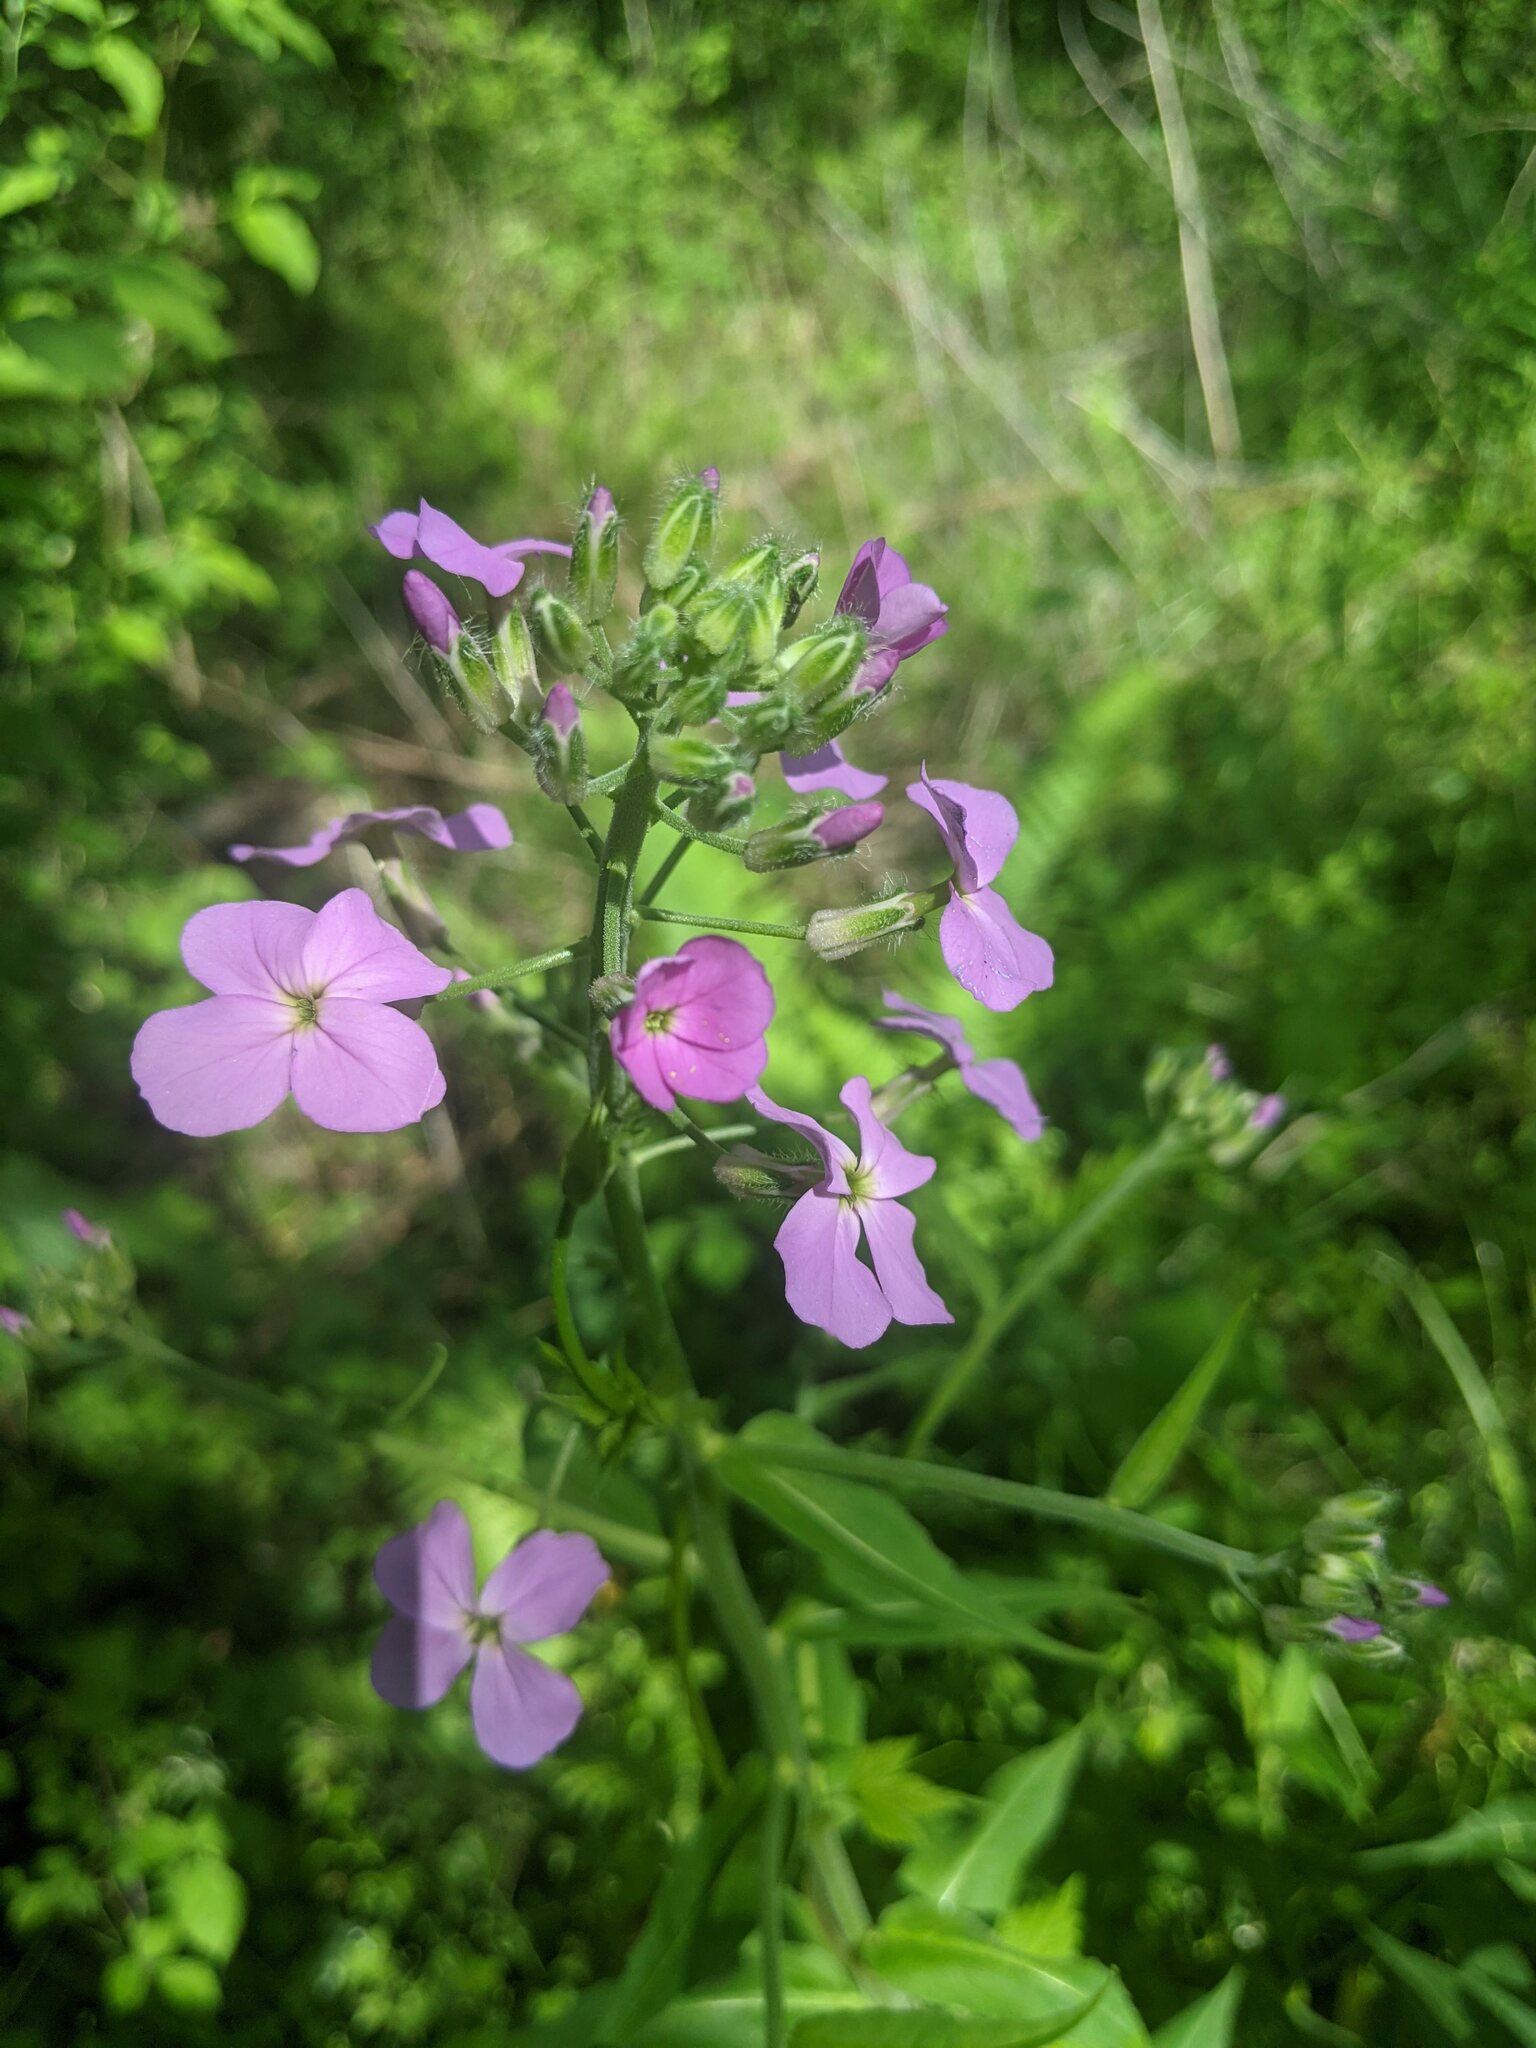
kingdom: Plantae
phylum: Tracheophyta
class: Magnoliopsida
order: Brassicales
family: Brassicaceae
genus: Hesperis
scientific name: Hesperis matronalis
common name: Dame's-violet
